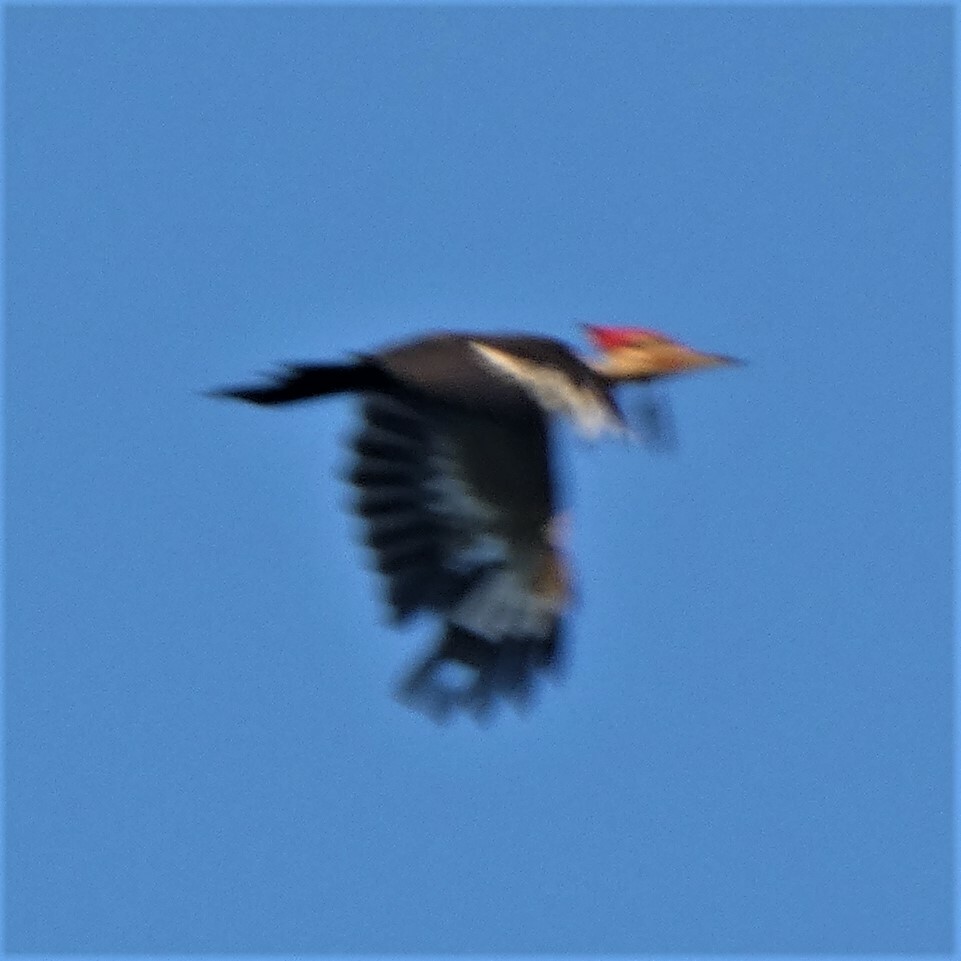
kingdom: Animalia
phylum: Chordata
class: Aves
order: Piciformes
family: Picidae
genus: Dryocopus
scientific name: Dryocopus pileatus
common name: Pileated woodpecker
